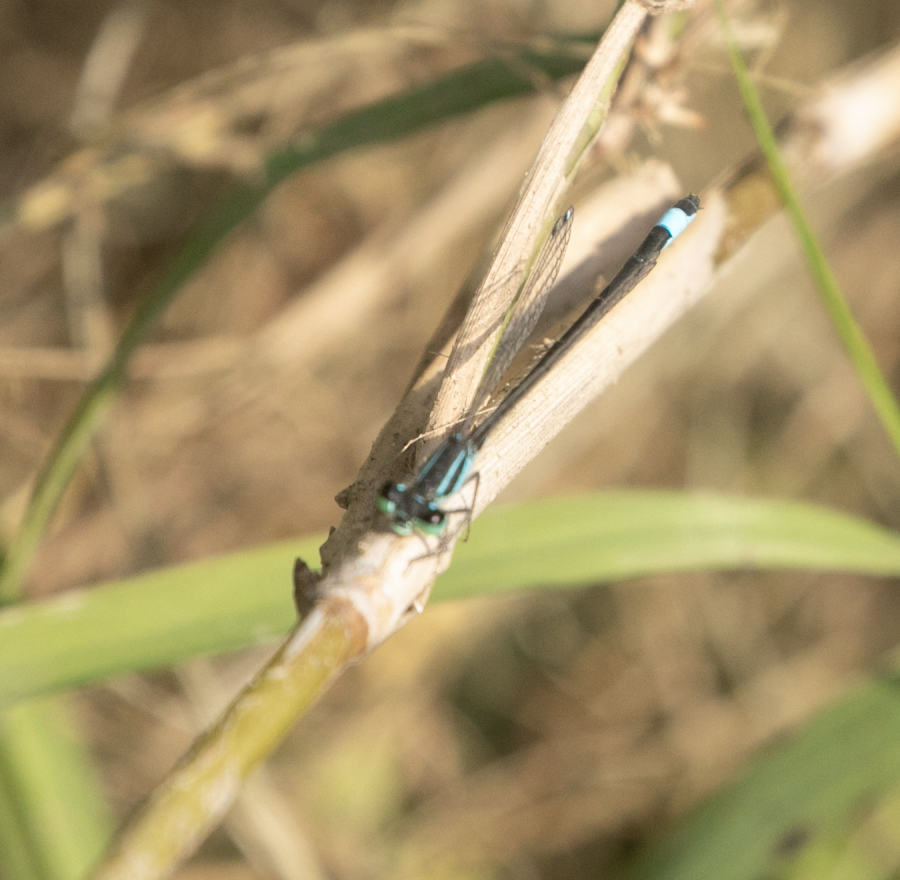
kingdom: Animalia
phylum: Arthropoda
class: Insecta
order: Odonata
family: Coenagrionidae
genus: Ischnura
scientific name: Ischnura elegans
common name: Blue-tailed damselfly
